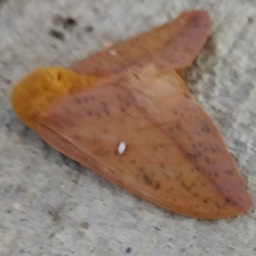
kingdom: Animalia
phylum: Arthropoda
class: Insecta
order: Lepidoptera
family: Saturniidae
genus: Anisota
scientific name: Anisota senatoria
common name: Orange-striped oakworm moth
